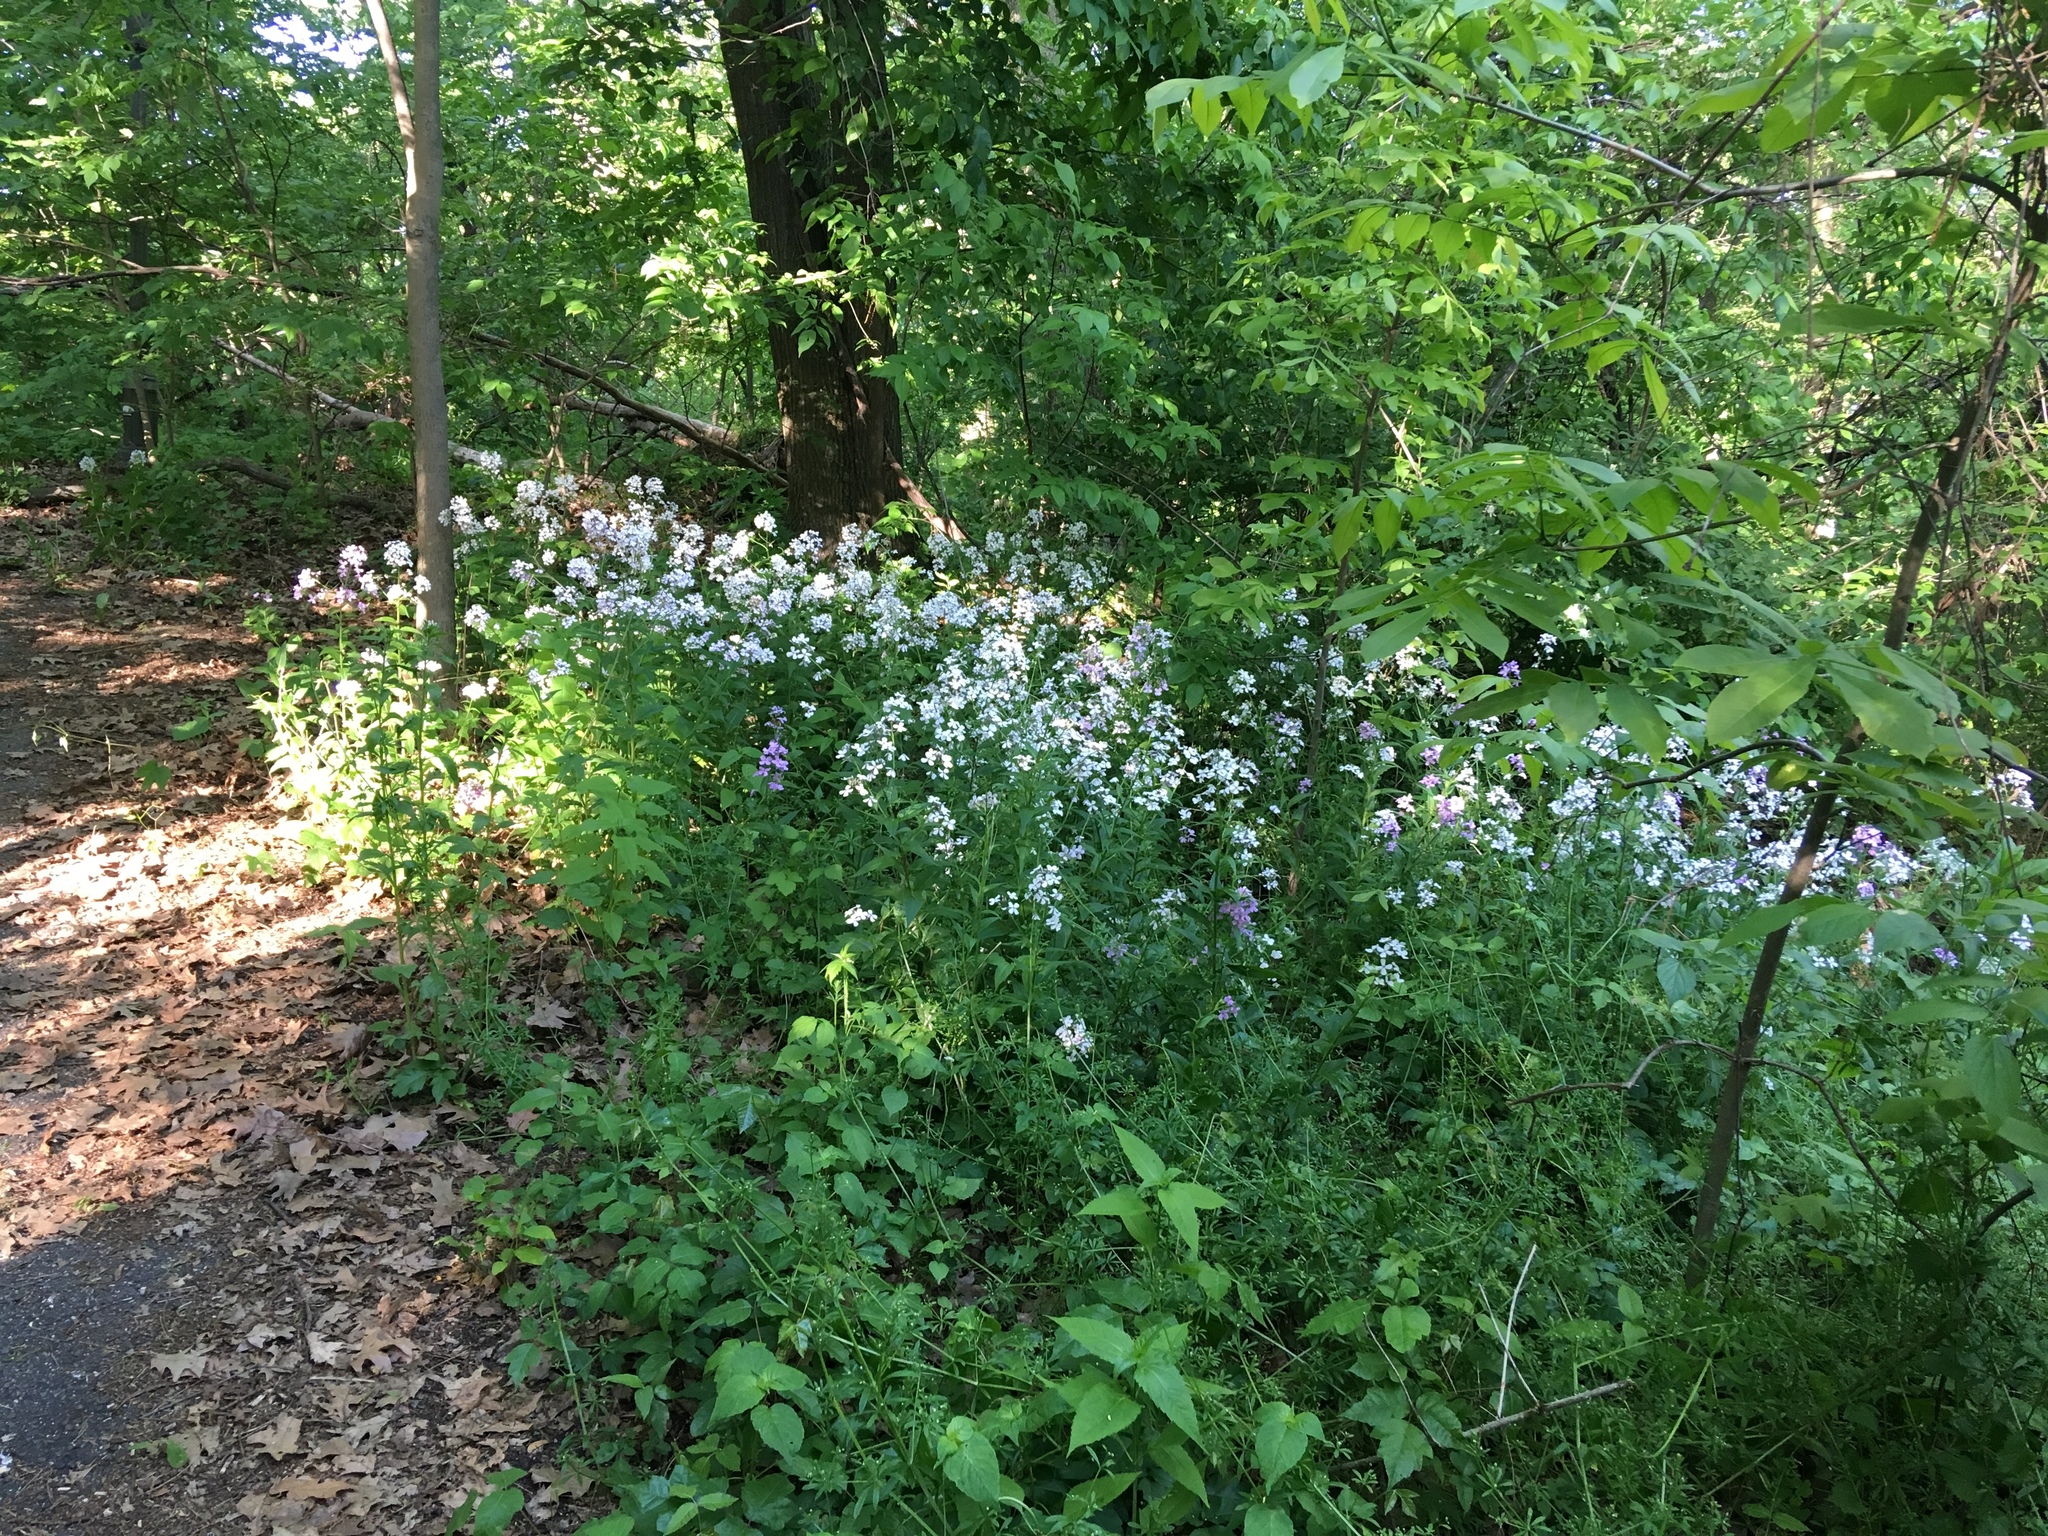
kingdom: Plantae
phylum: Tracheophyta
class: Magnoliopsida
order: Brassicales
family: Brassicaceae
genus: Hesperis
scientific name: Hesperis matronalis
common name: Dame's-violet
